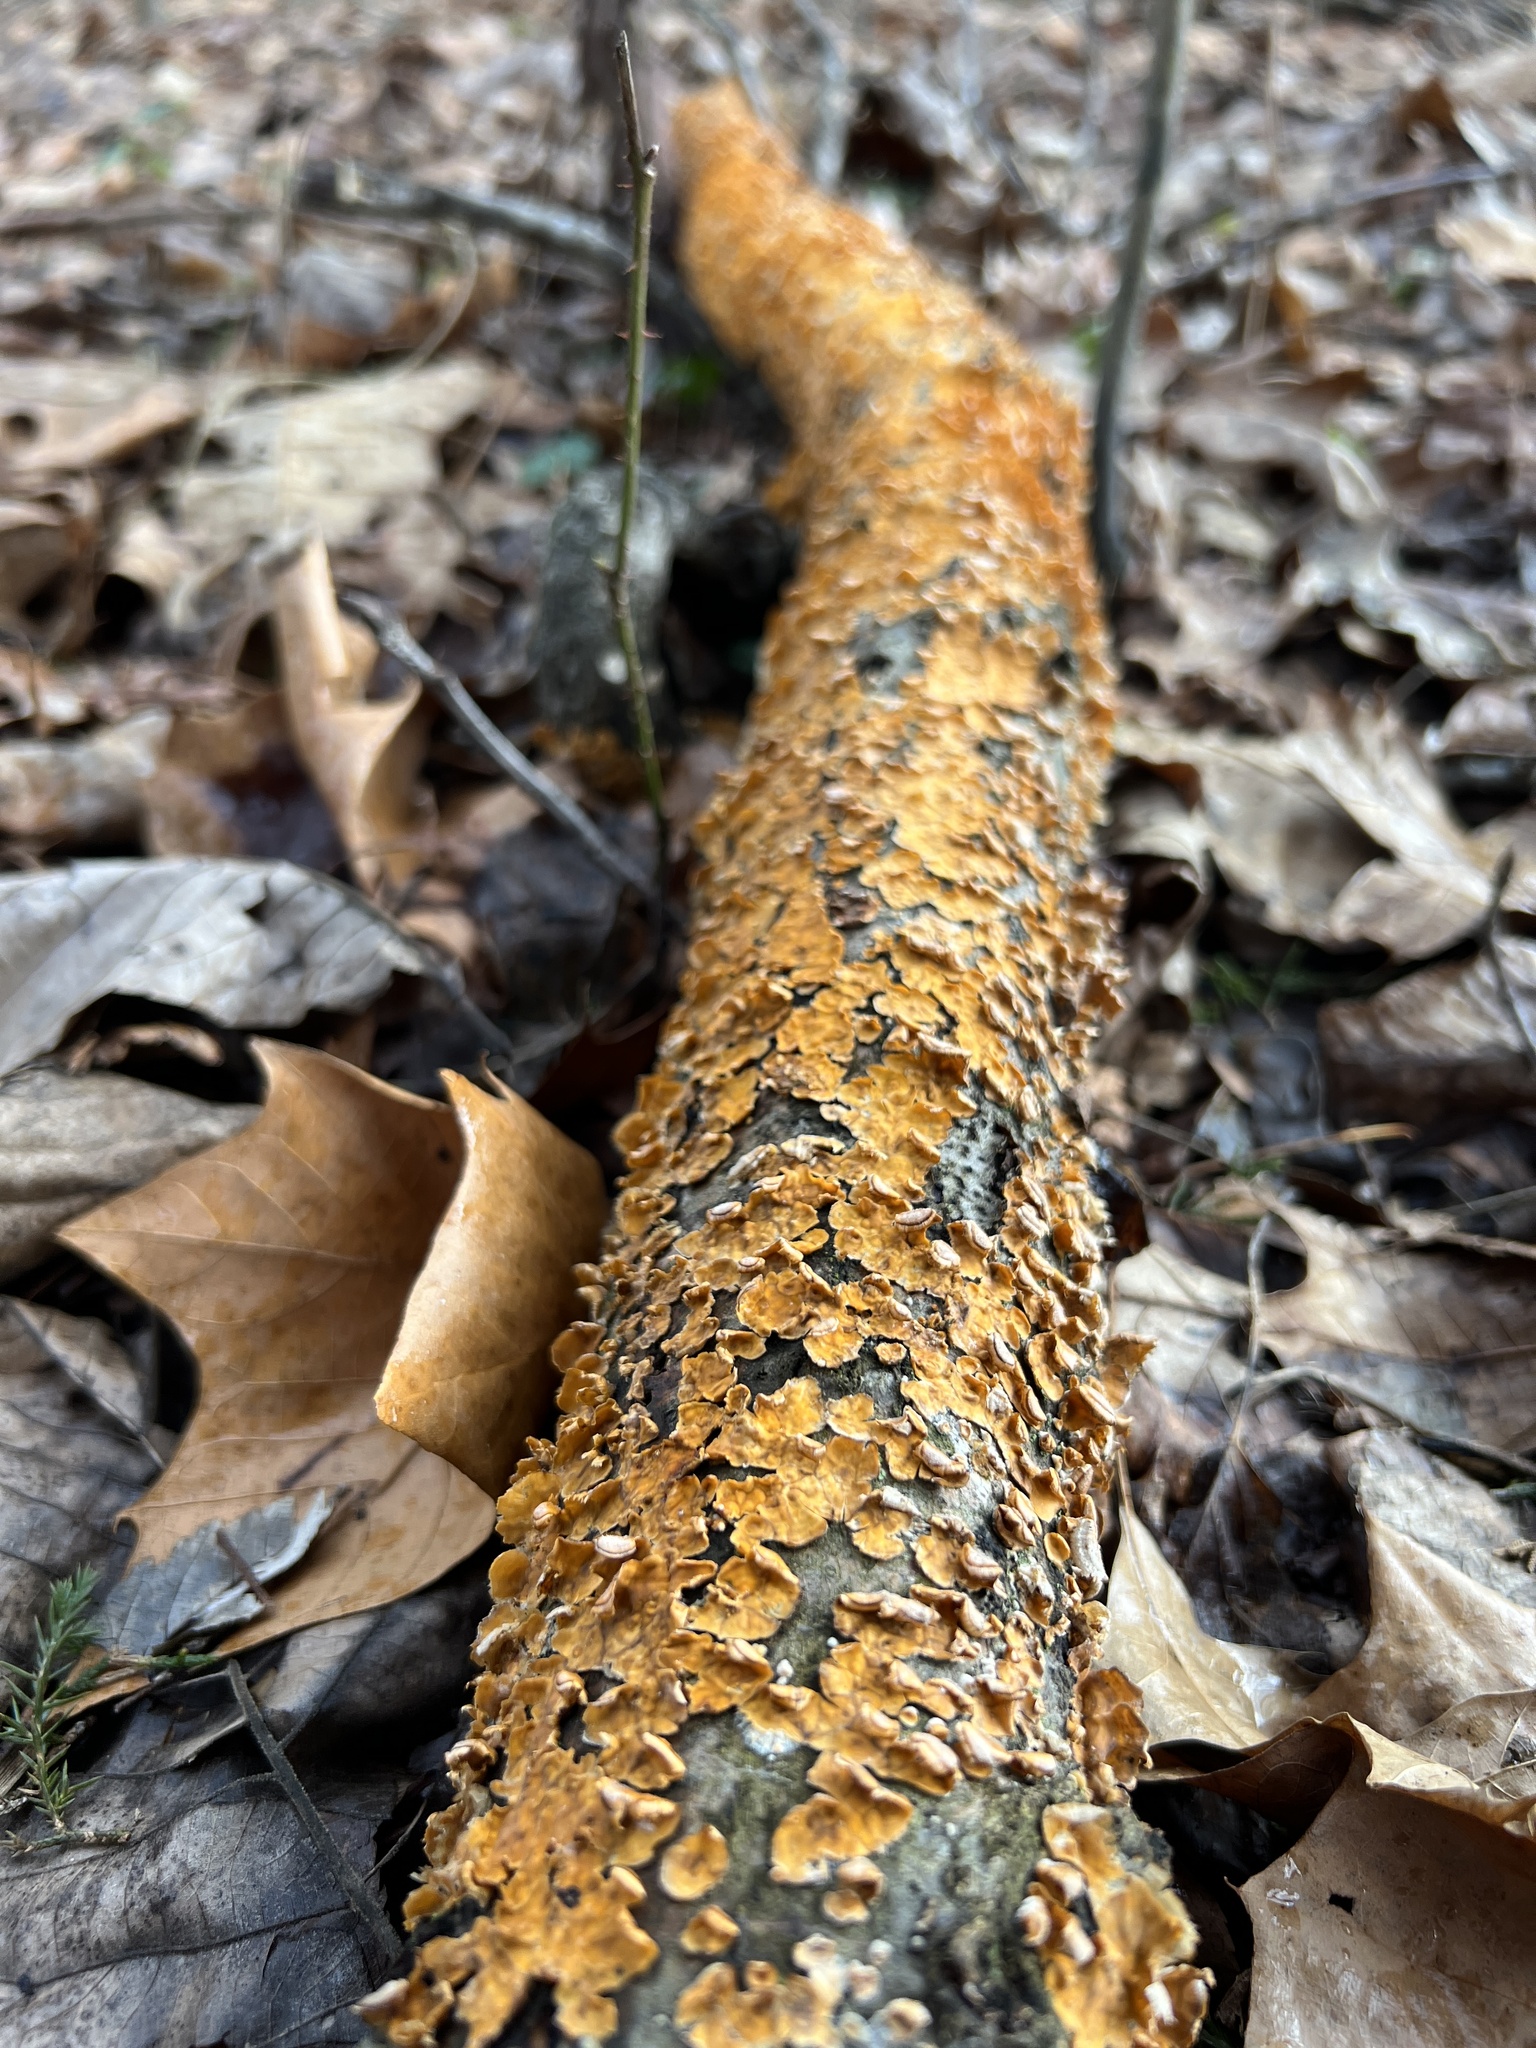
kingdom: Fungi
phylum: Basidiomycota
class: Agaricomycetes
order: Russulales
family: Stereaceae
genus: Stereum
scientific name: Stereum complicatum
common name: Crowded parchment
